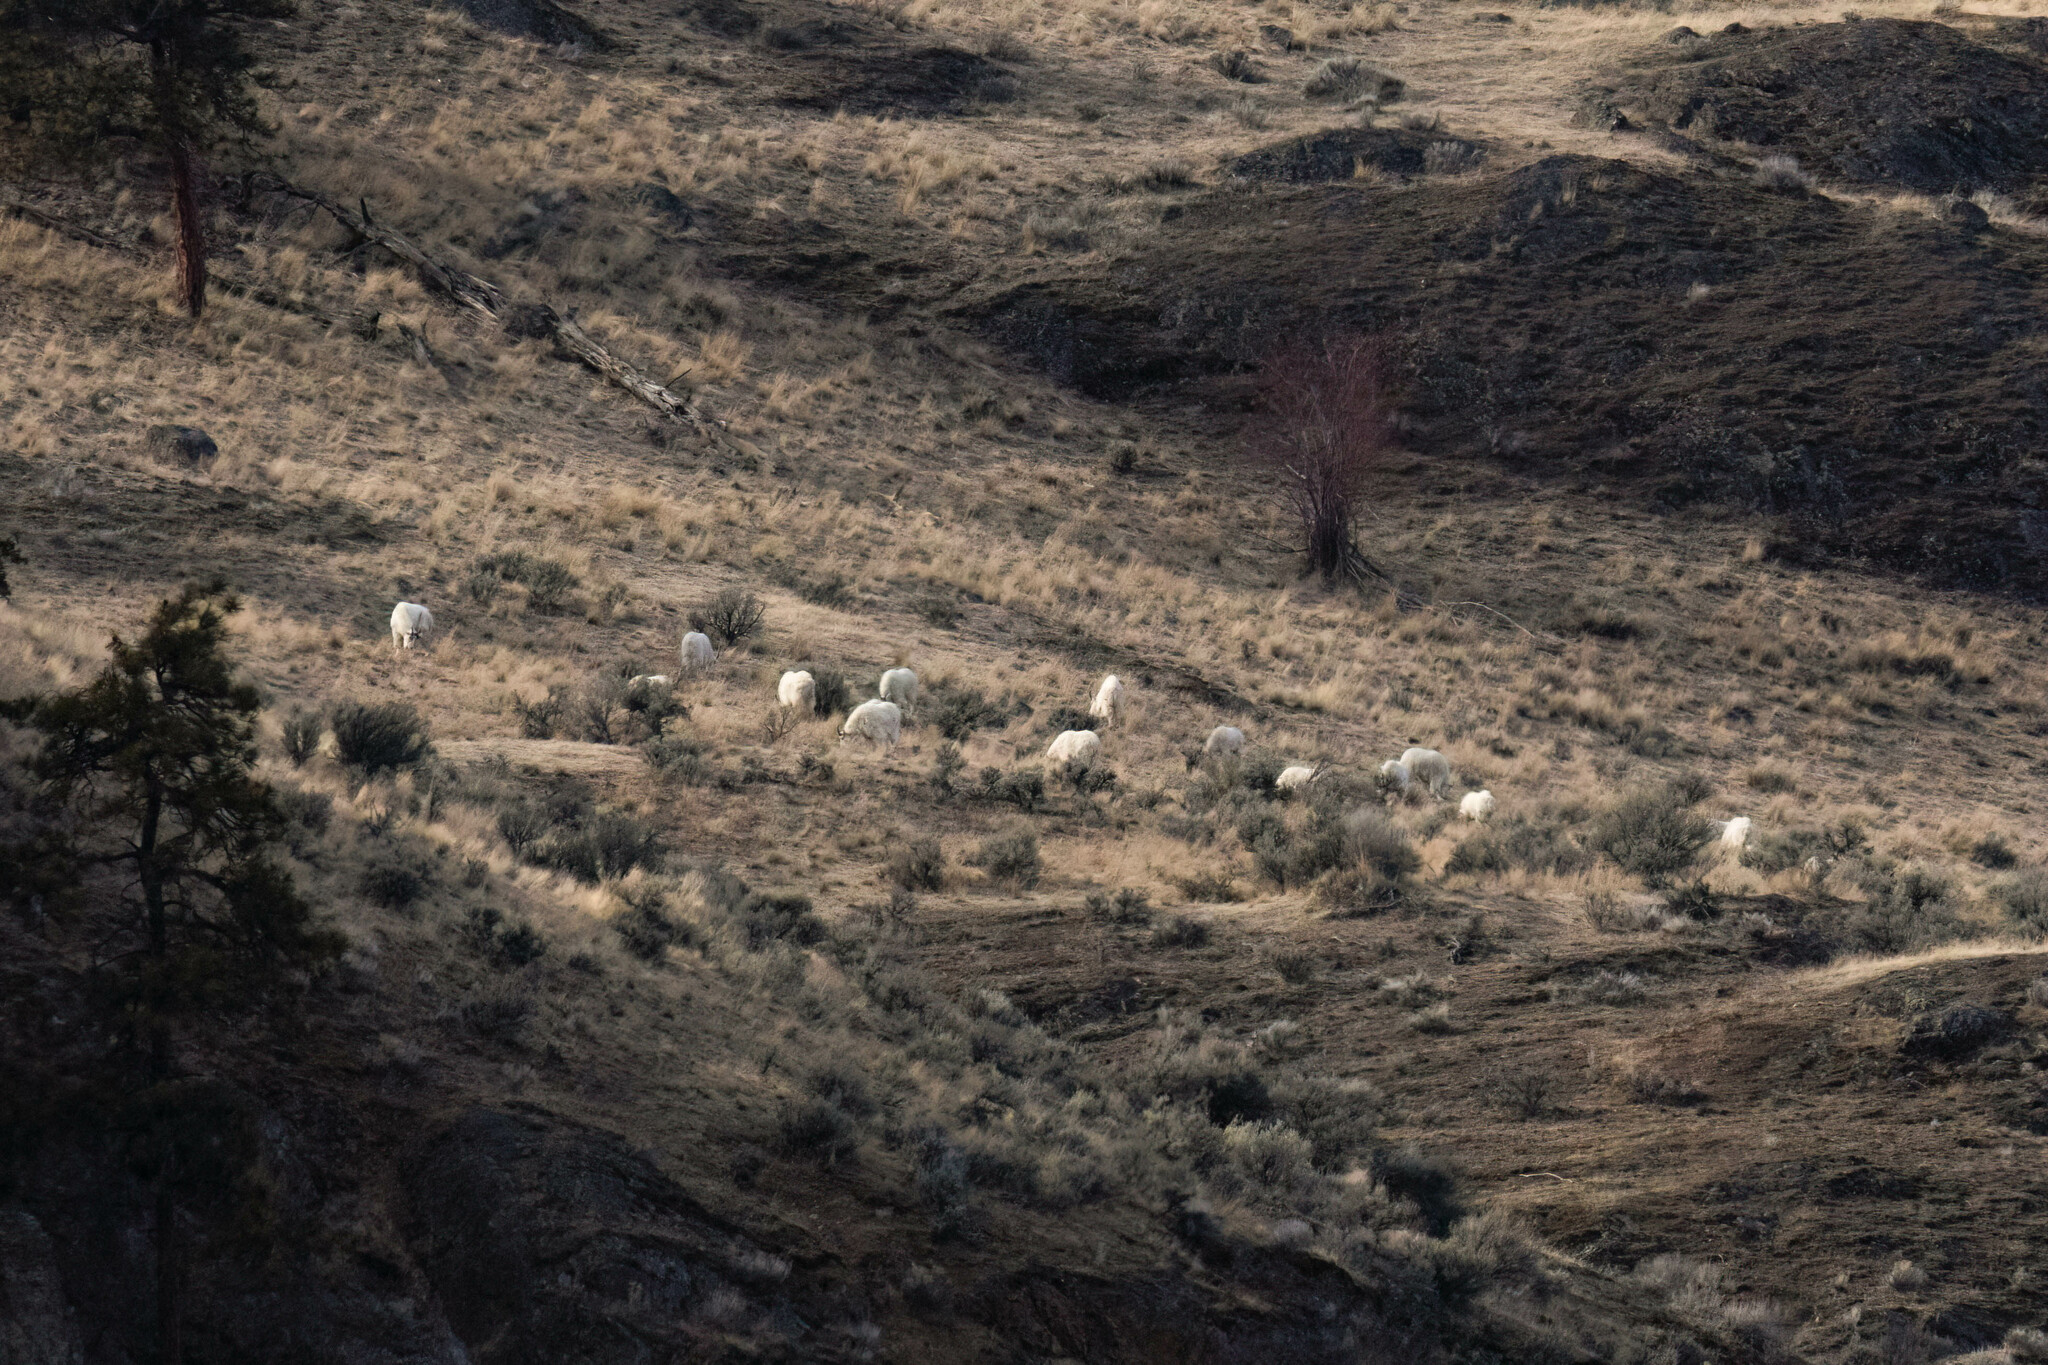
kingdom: Animalia
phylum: Chordata
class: Mammalia
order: Artiodactyla
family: Bovidae
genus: Oreamnos
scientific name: Oreamnos americanus
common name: Mountain goat
